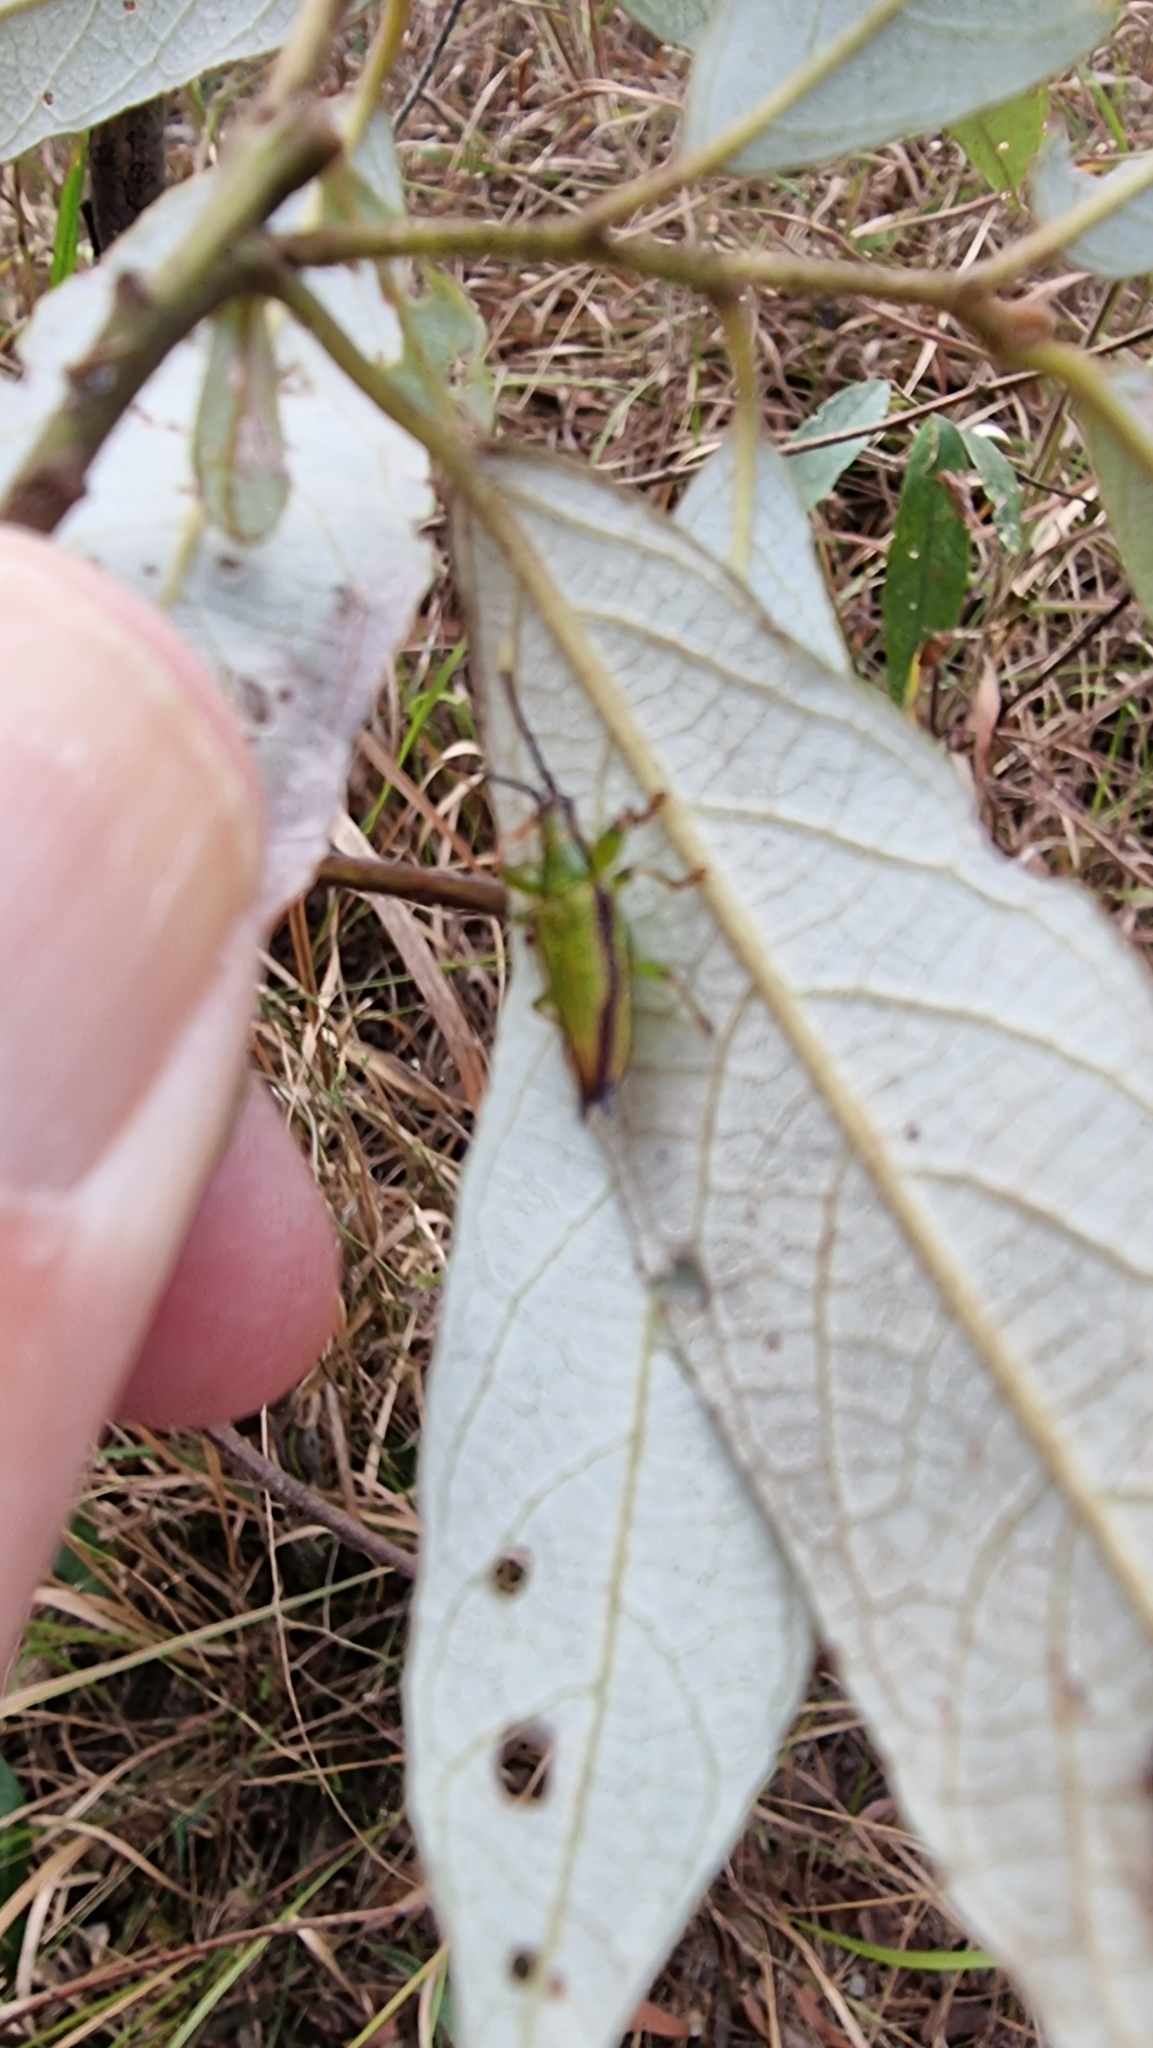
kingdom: Animalia
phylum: Arthropoda
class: Insecta
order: Coleoptera
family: Chrysomelidae
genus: Aproida
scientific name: Aproida balyi
